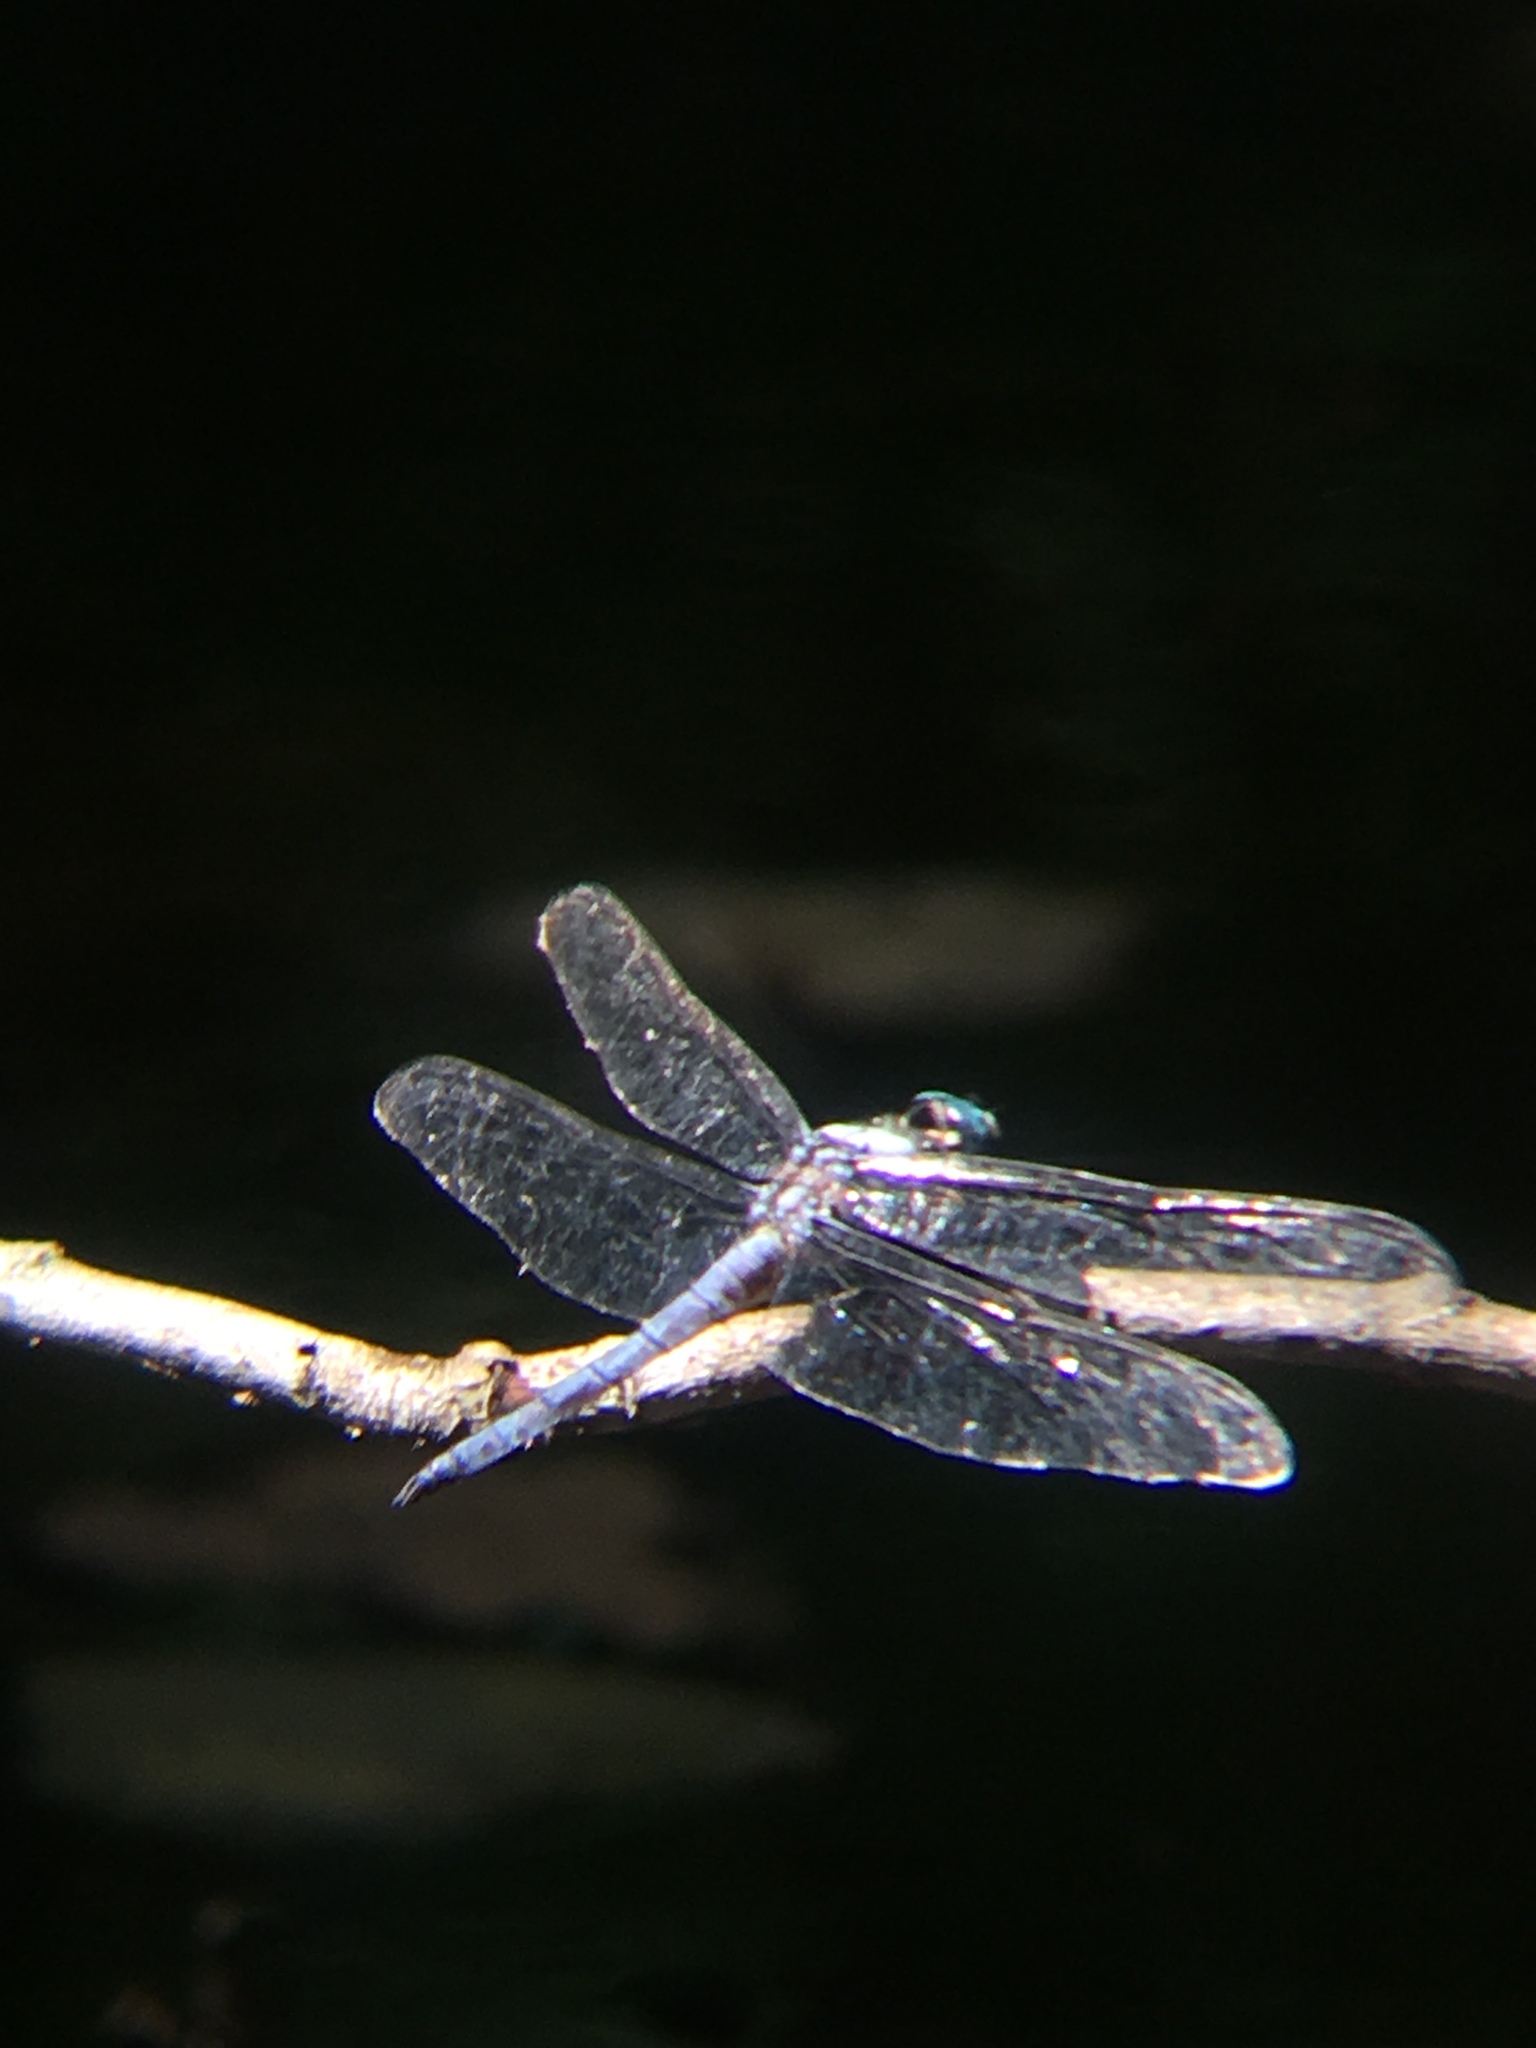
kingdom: Animalia
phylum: Arthropoda
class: Insecta
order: Odonata
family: Libellulidae
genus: Libellula
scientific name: Libellula vibrans
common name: Great blue skimmer
